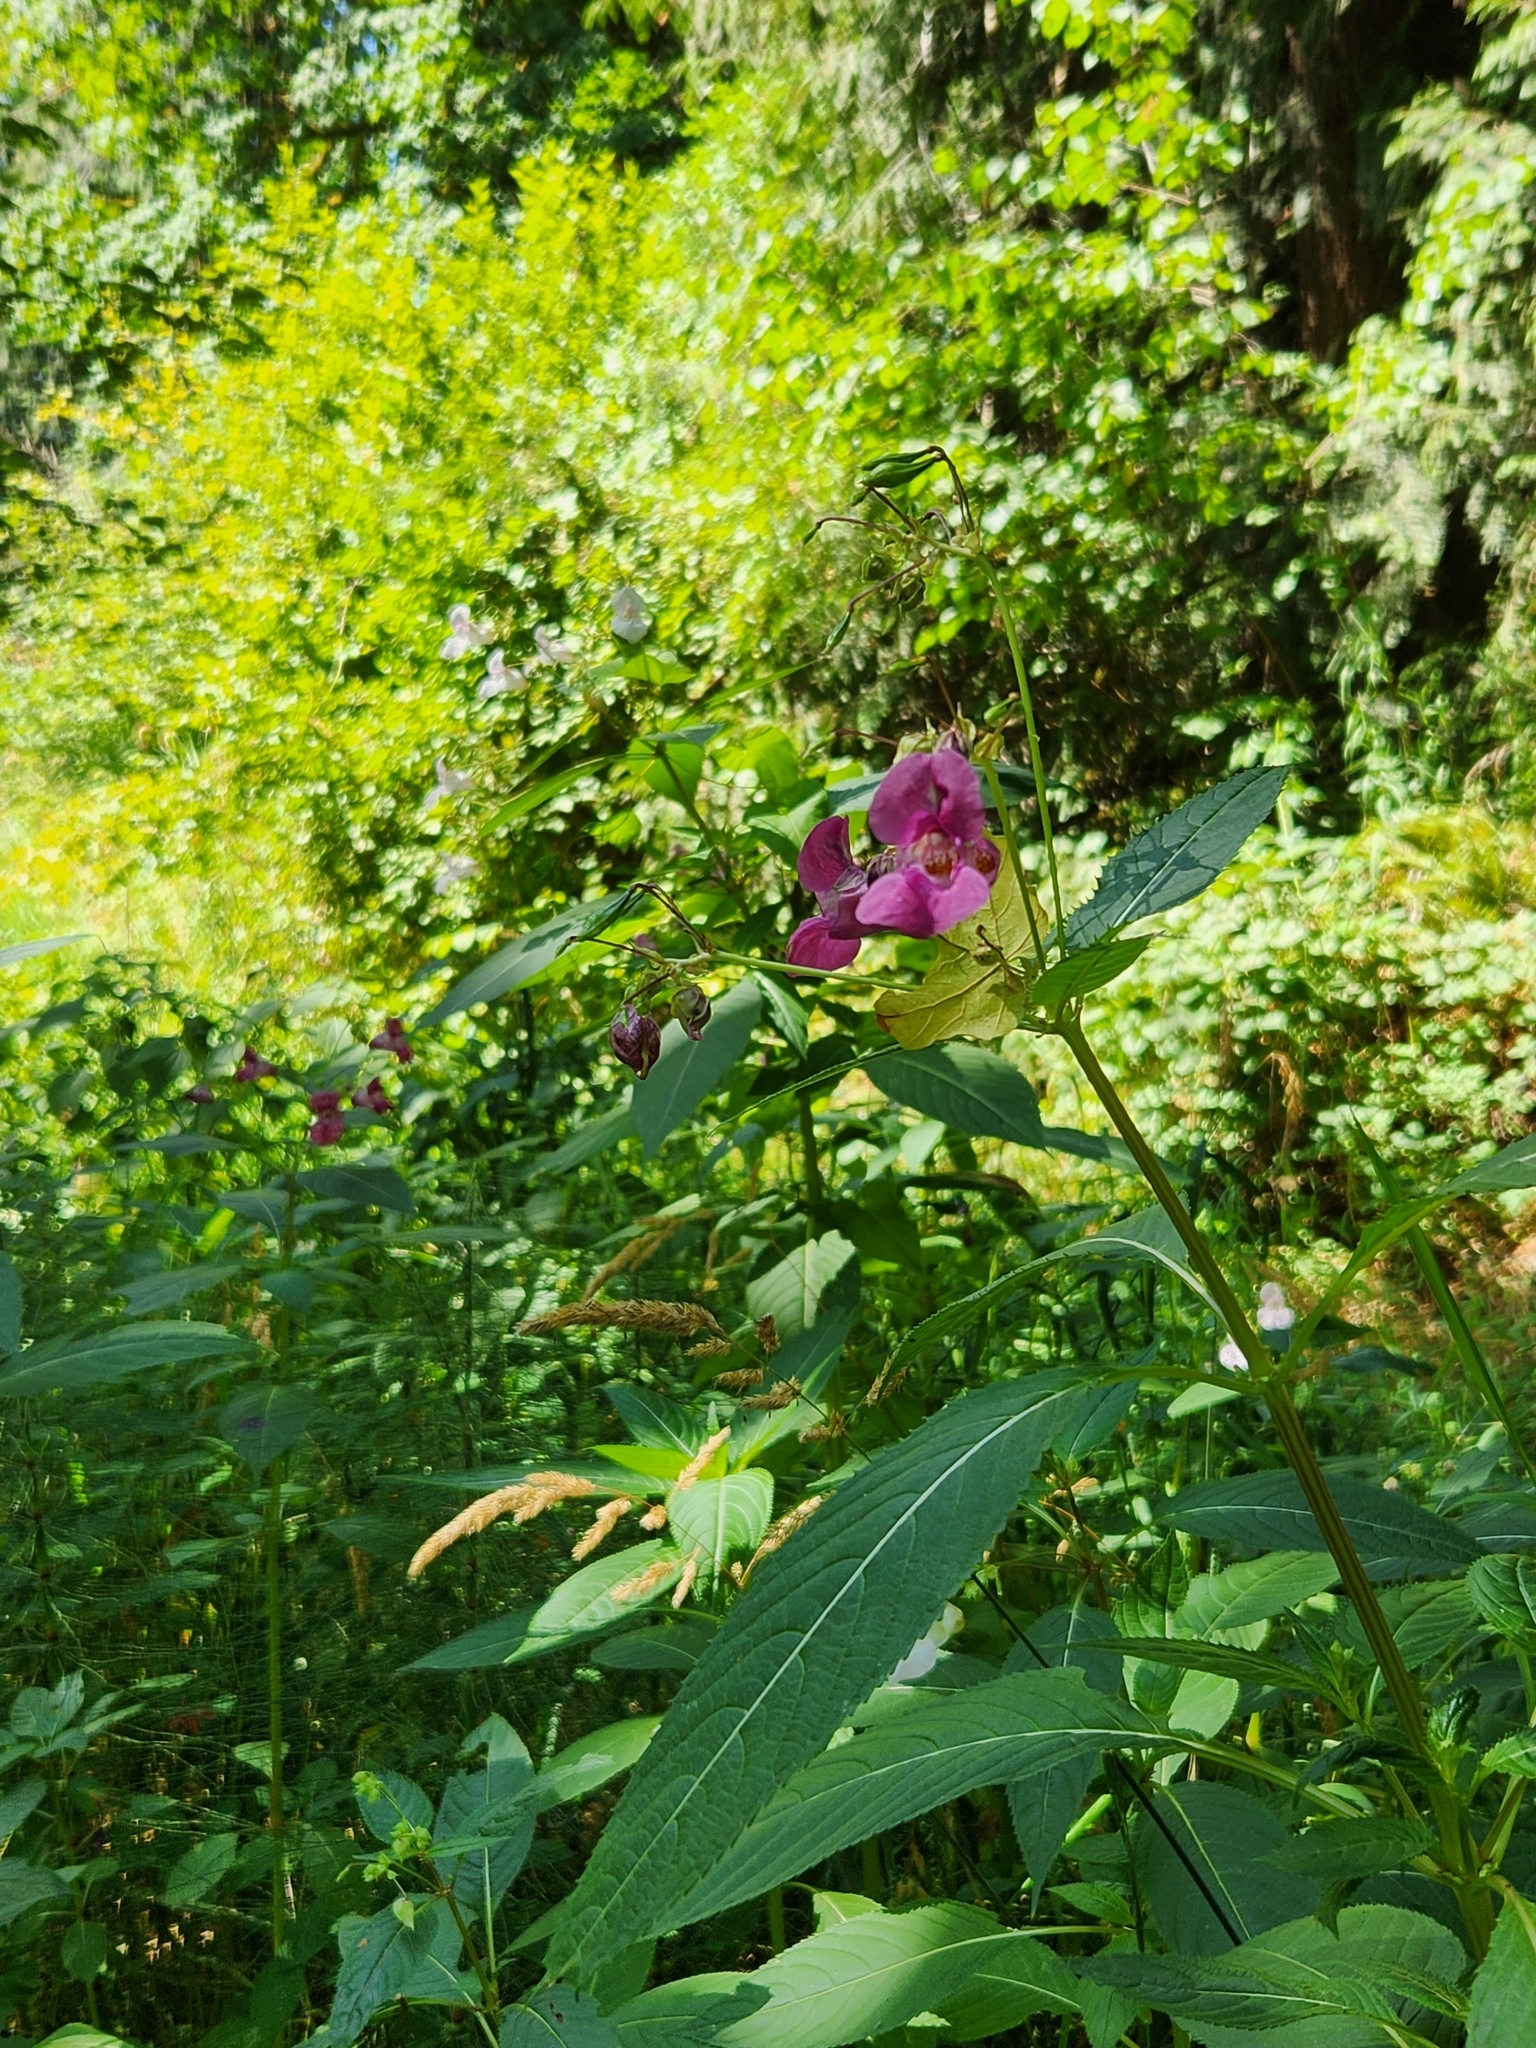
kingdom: Plantae
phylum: Tracheophyta
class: Magnoliopsida
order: Ericales
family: Balsaminaceae
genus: Impatiens
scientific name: Impatiens glandulifera
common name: Himalayan balsam
